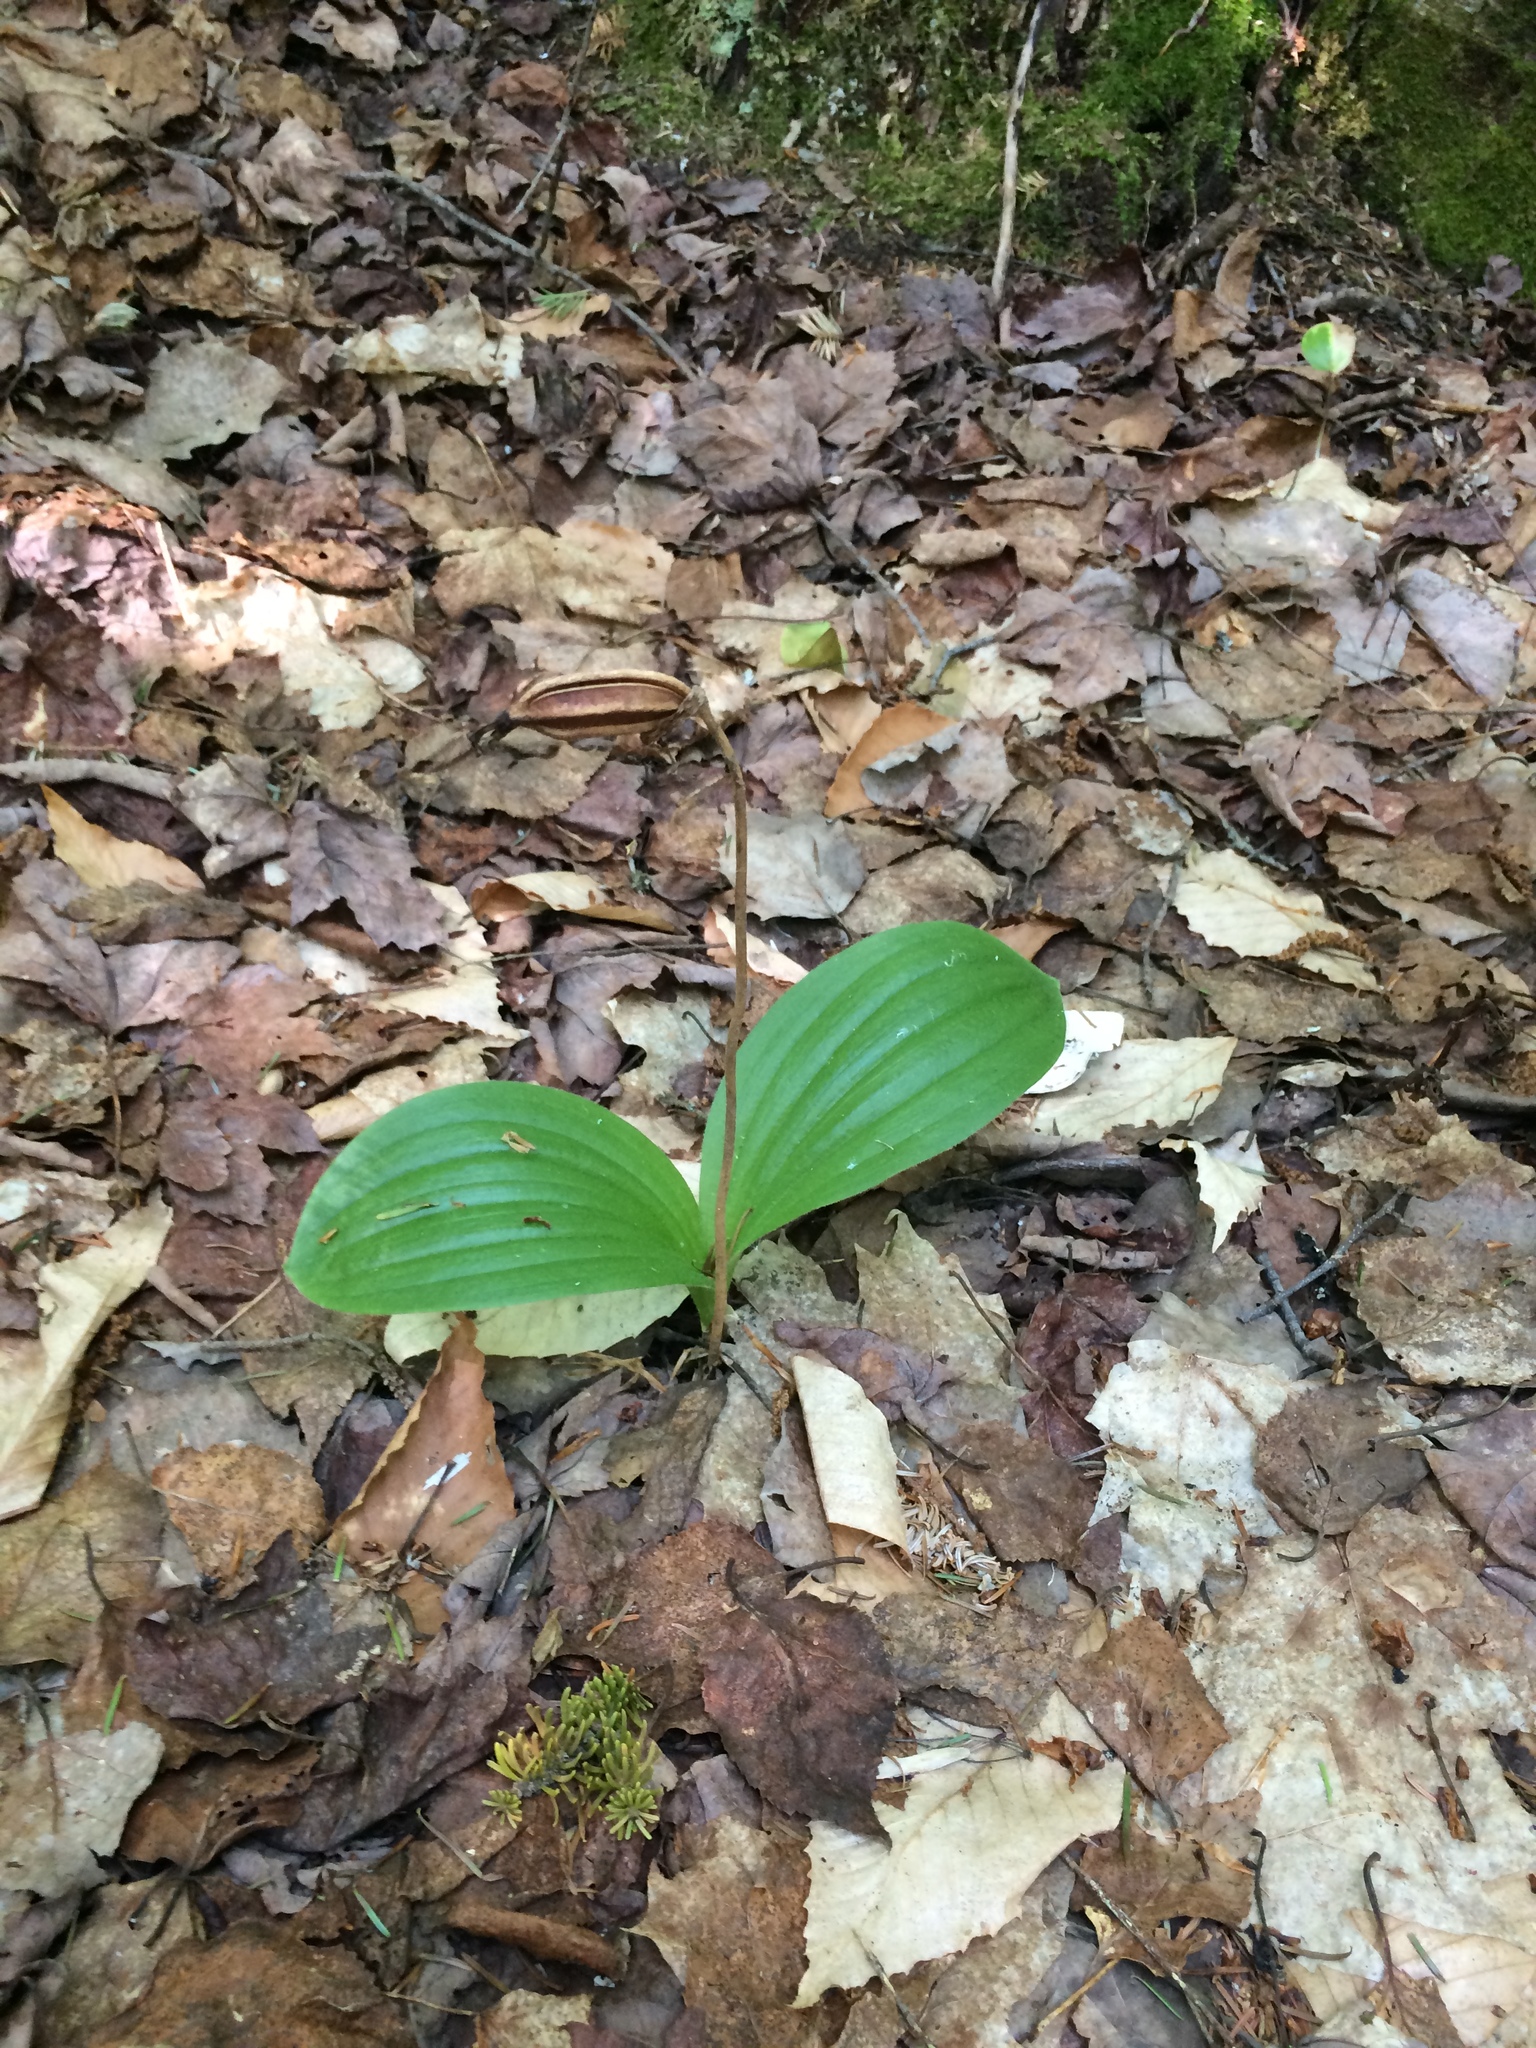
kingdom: Plantae
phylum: Tracheophyta
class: Liliopsida
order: Asparagales
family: Orchidaceae
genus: Cypripedium
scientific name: Cypripedium acaule
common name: Pink lady's-slipper
